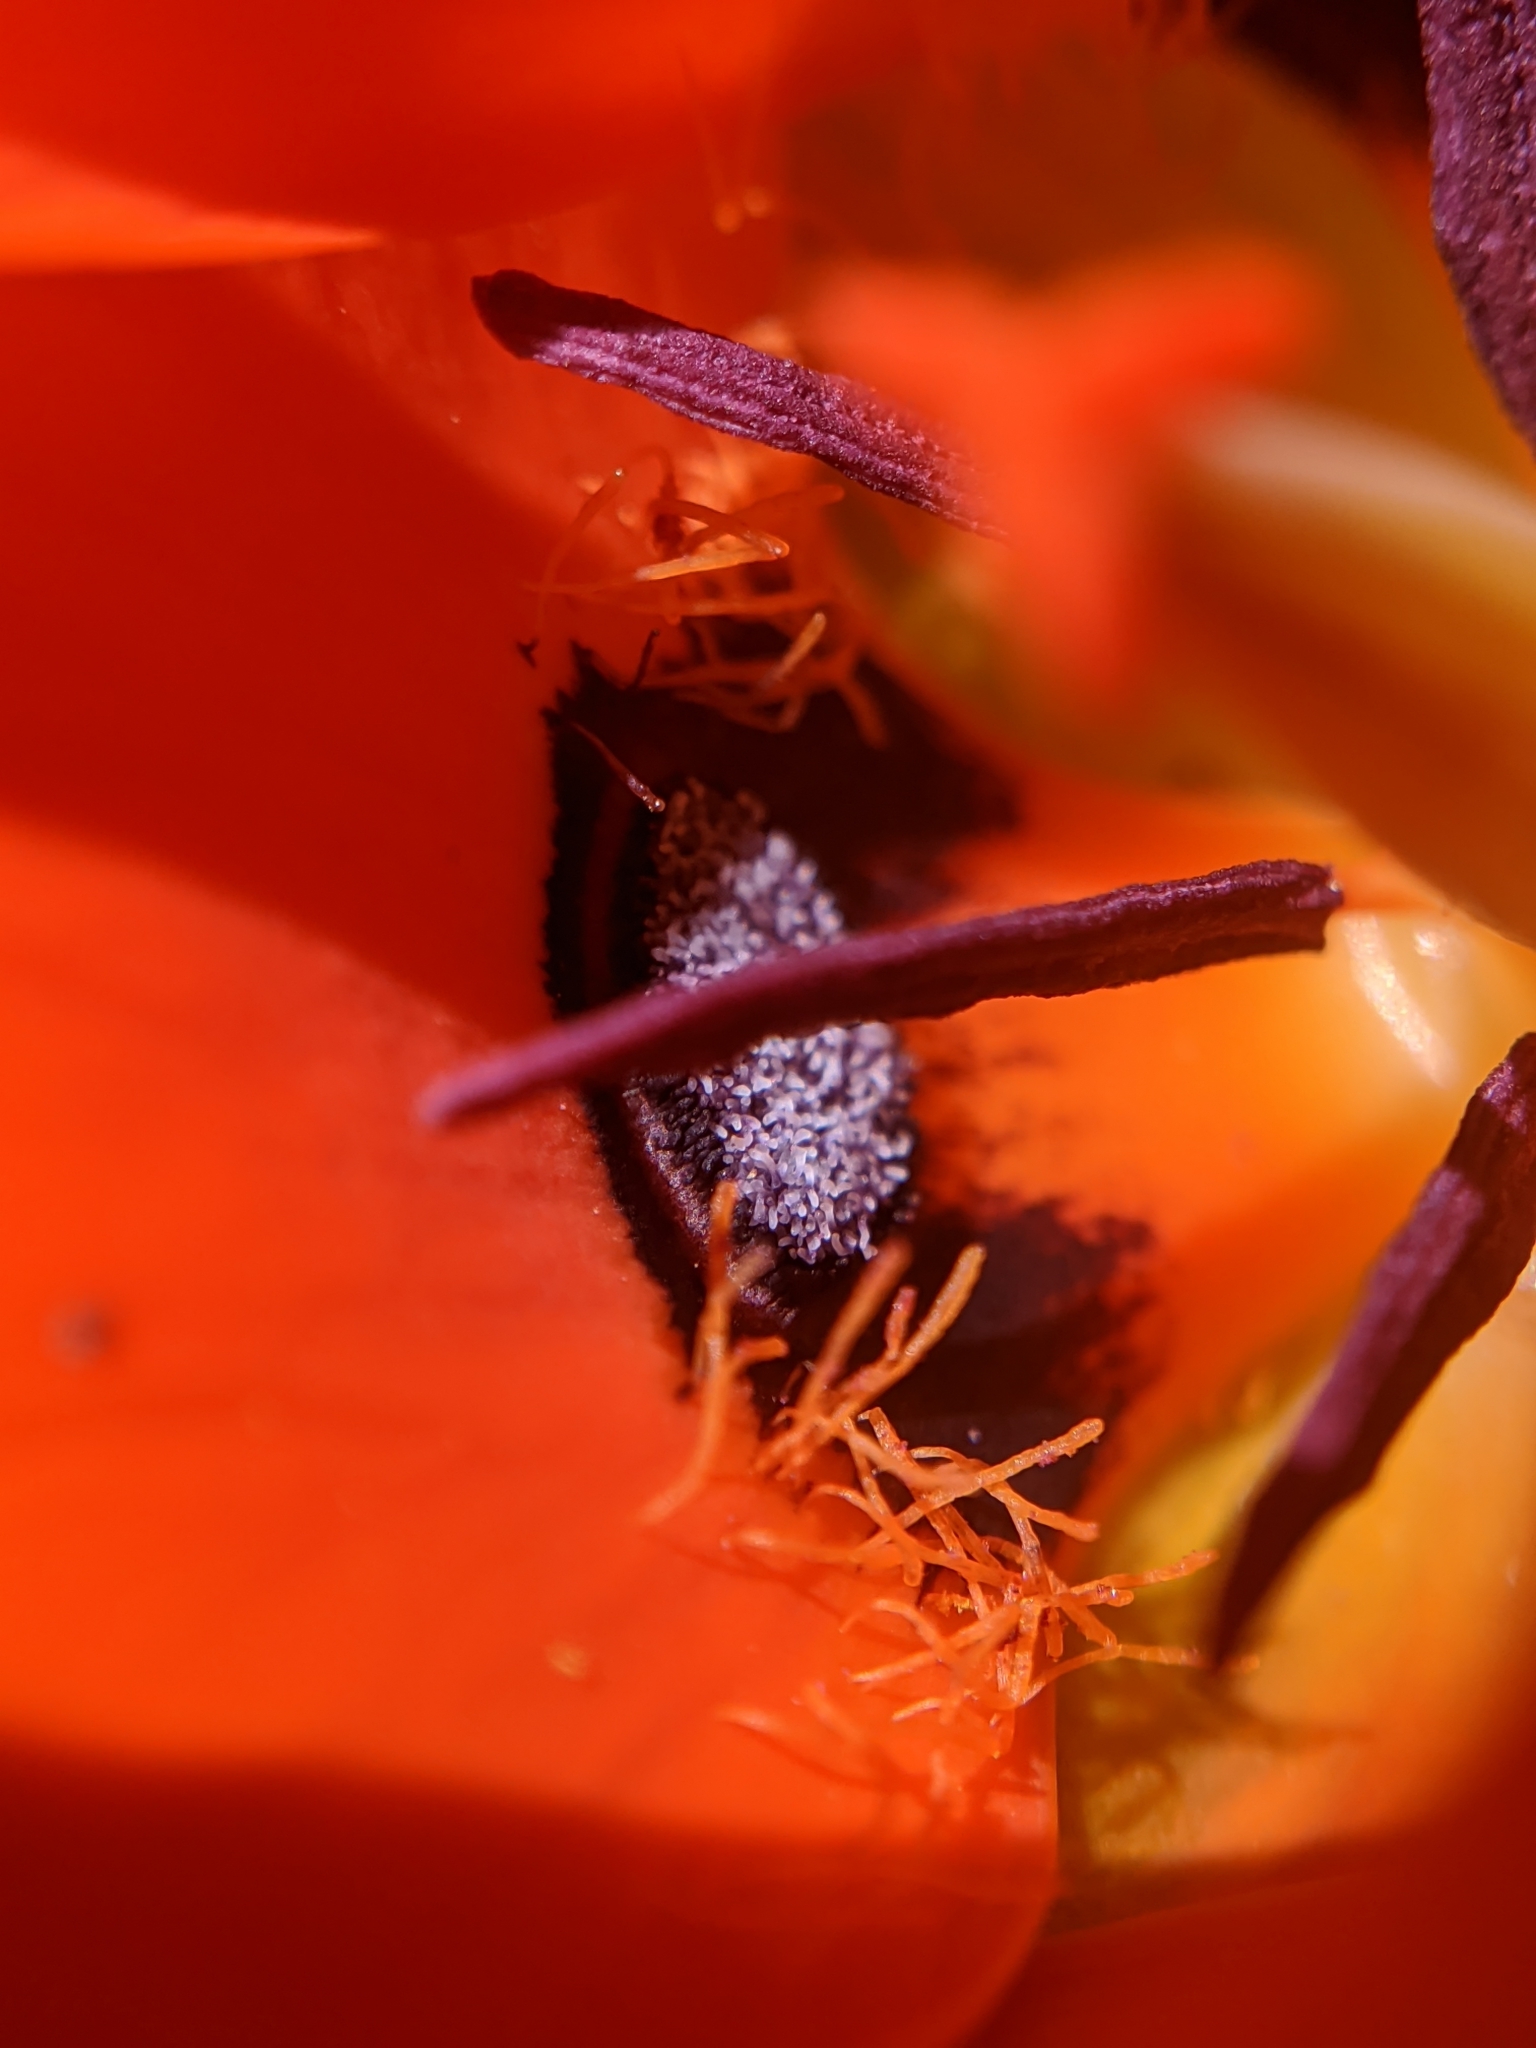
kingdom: Plantae
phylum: Tracheophyta
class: Liliopsida
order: Liliales
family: Liliaceae
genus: Calochortus
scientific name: Calochortus kennedyi
